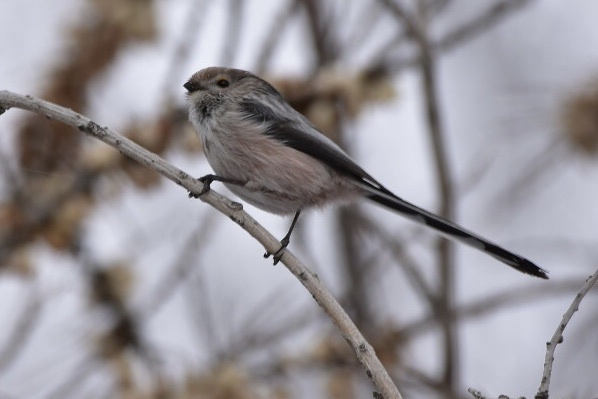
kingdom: Animalia
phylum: Chordata
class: Aves
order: Passeriformes
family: Aegithalidae
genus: Aegithalos
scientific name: Aegithalos caudatus
